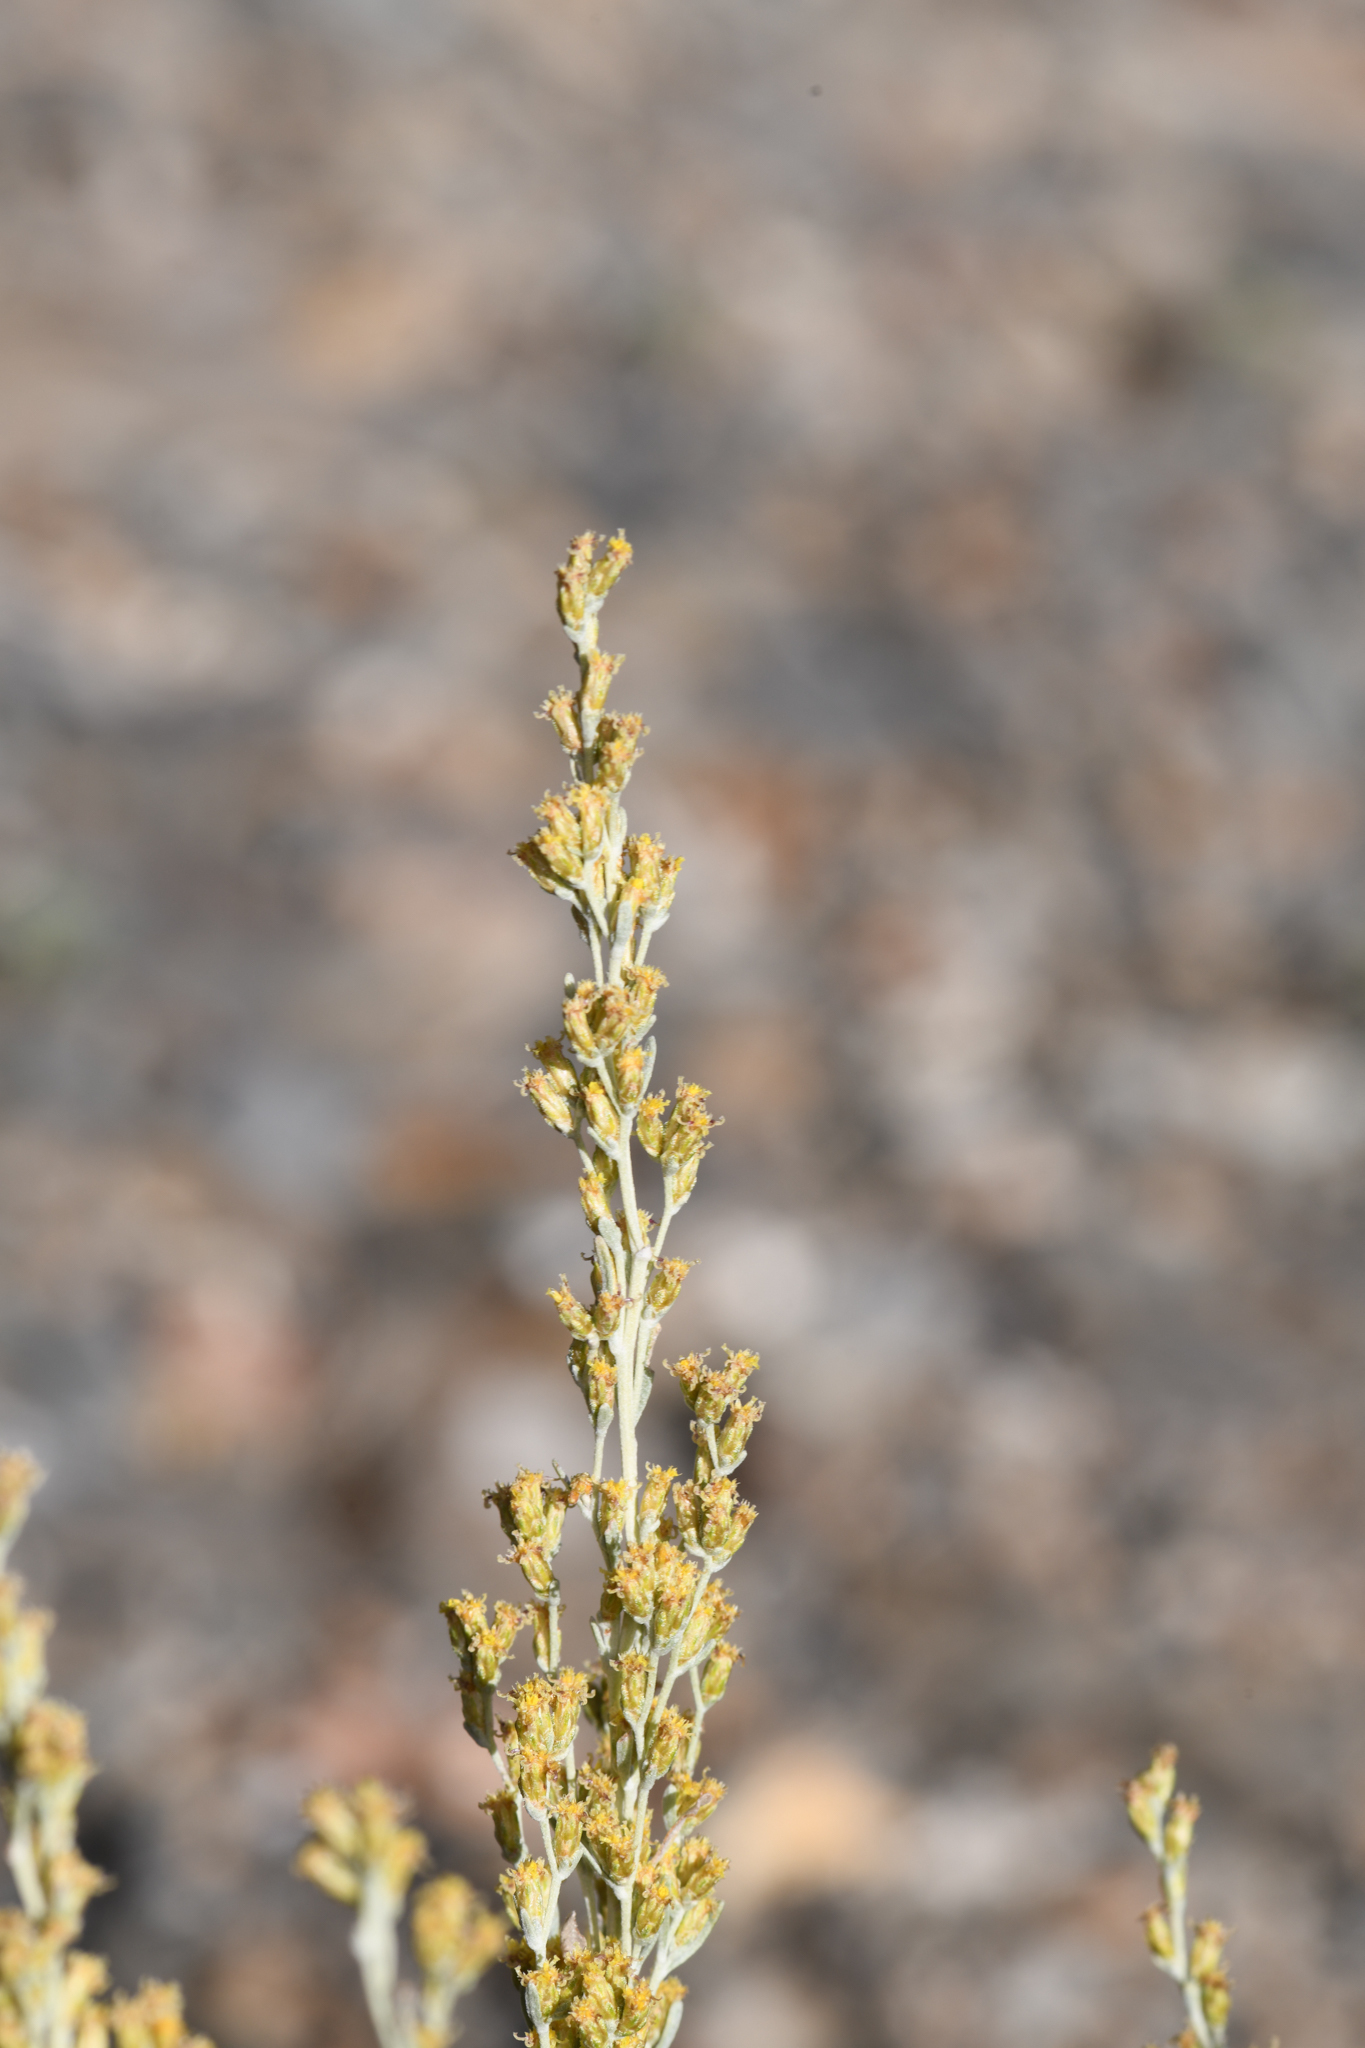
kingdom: Plantae
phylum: Tracheophyta
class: Magnoliopsida
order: Asterales
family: Asteraceae
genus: Artemisia
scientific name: Artemisia nova
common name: Black-sage
